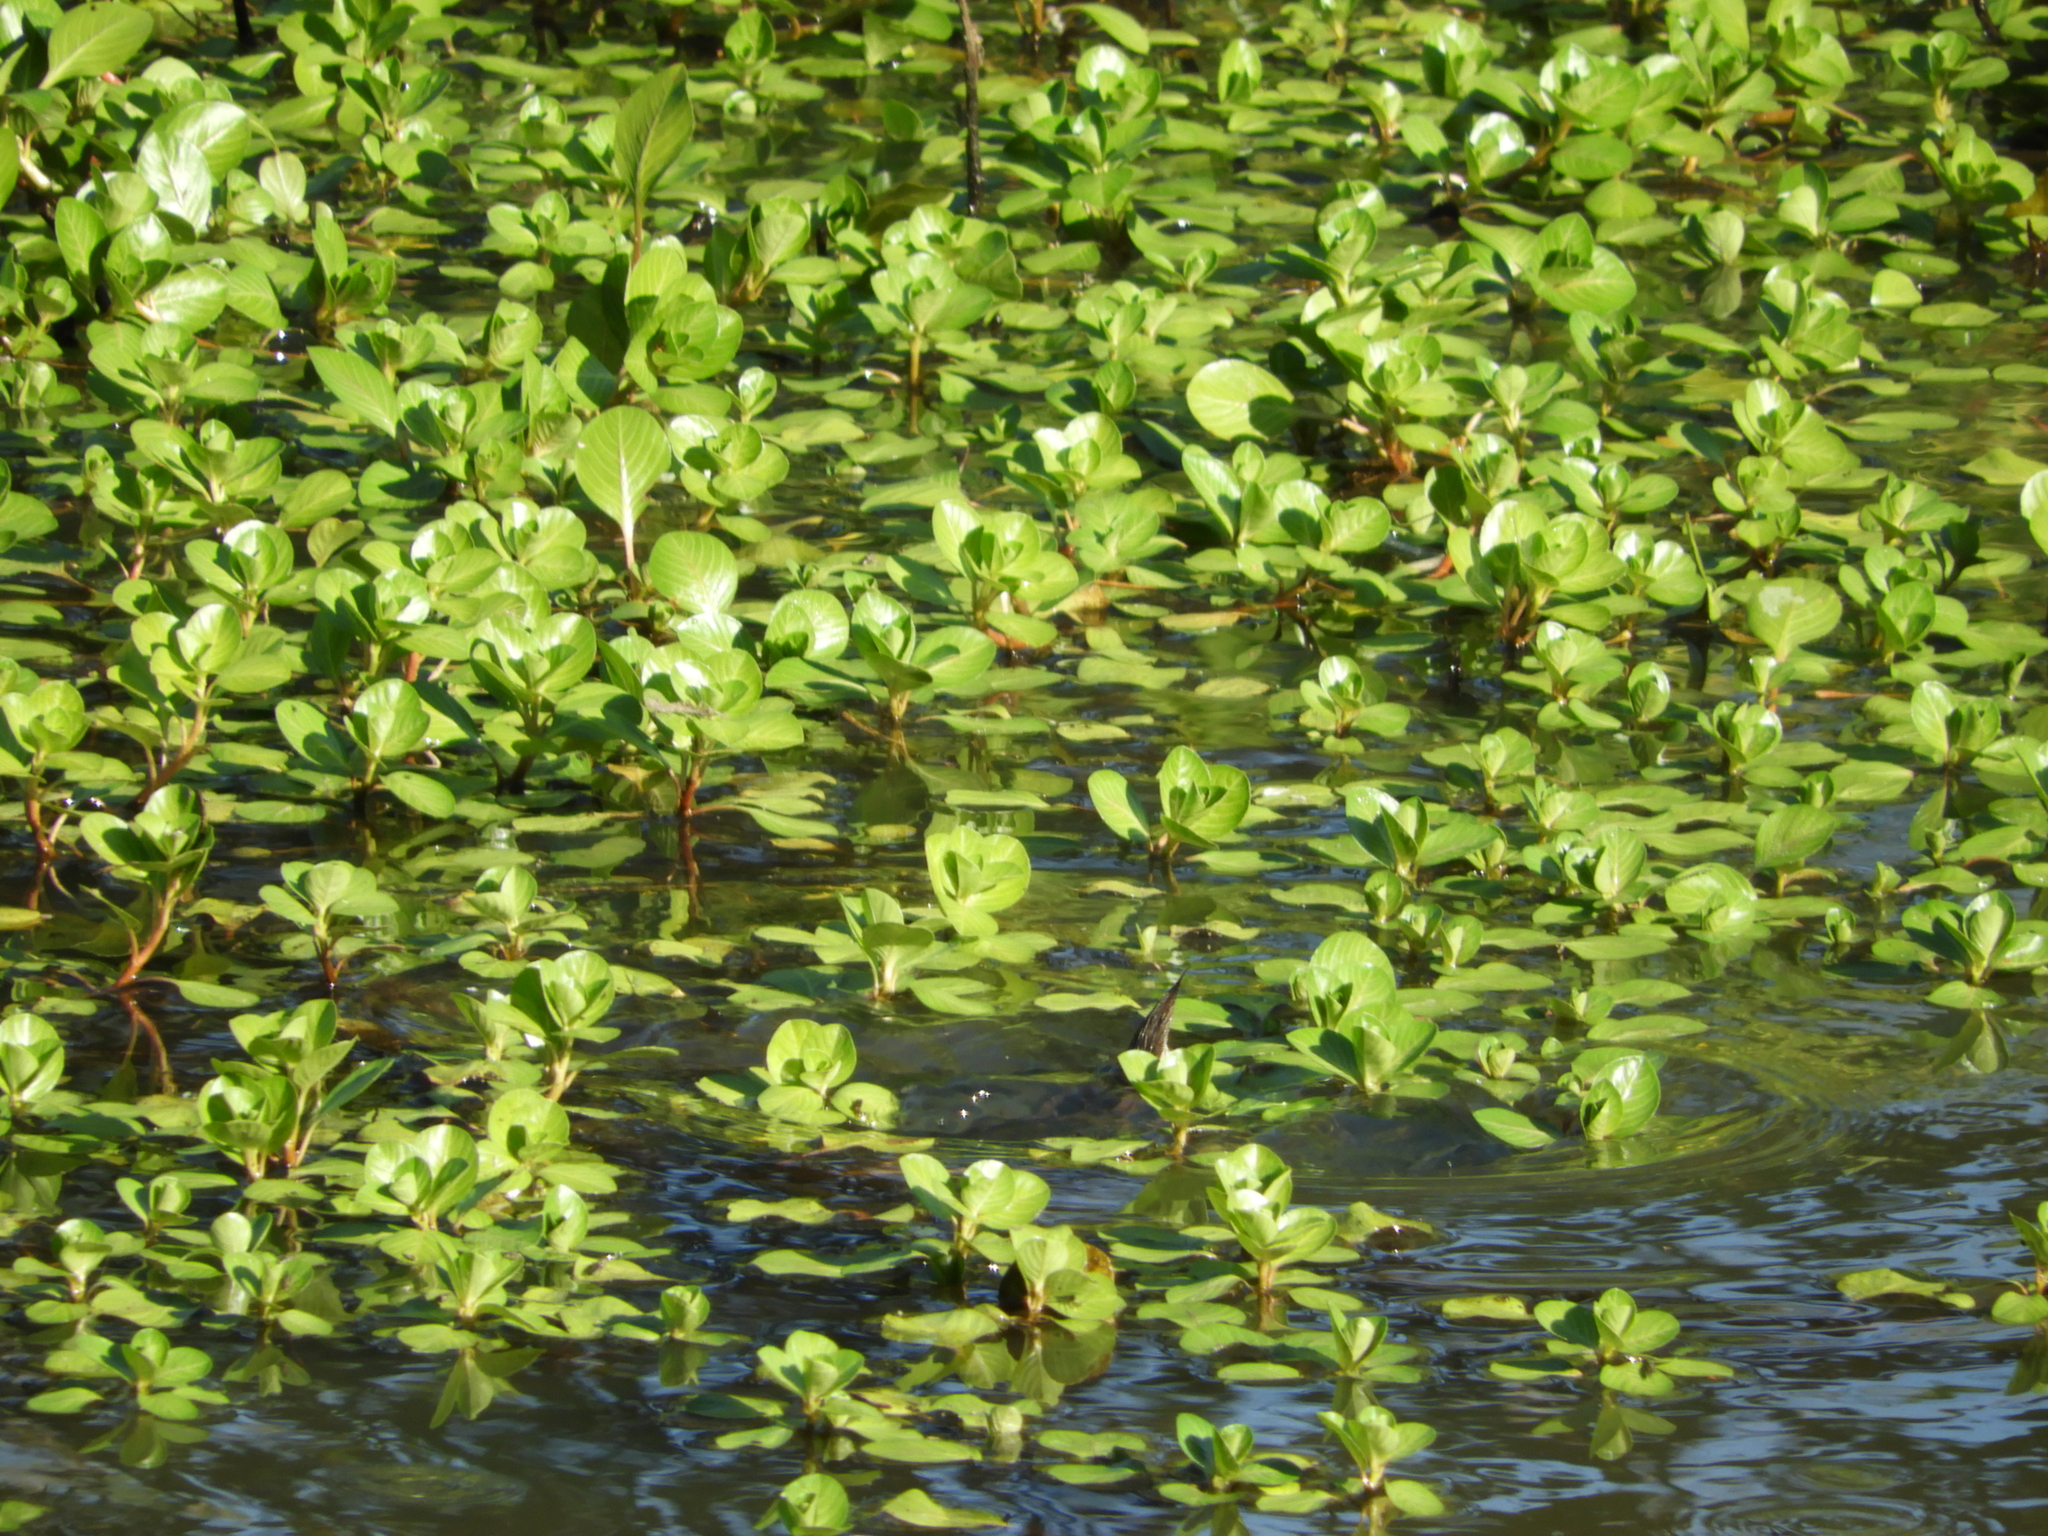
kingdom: Plantae
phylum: Tracheophyta
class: Magnoliopsida
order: Myrtales
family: Onagraceae
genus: Ludwigia
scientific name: Ludwigia peploides
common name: Floating primrose-willow
